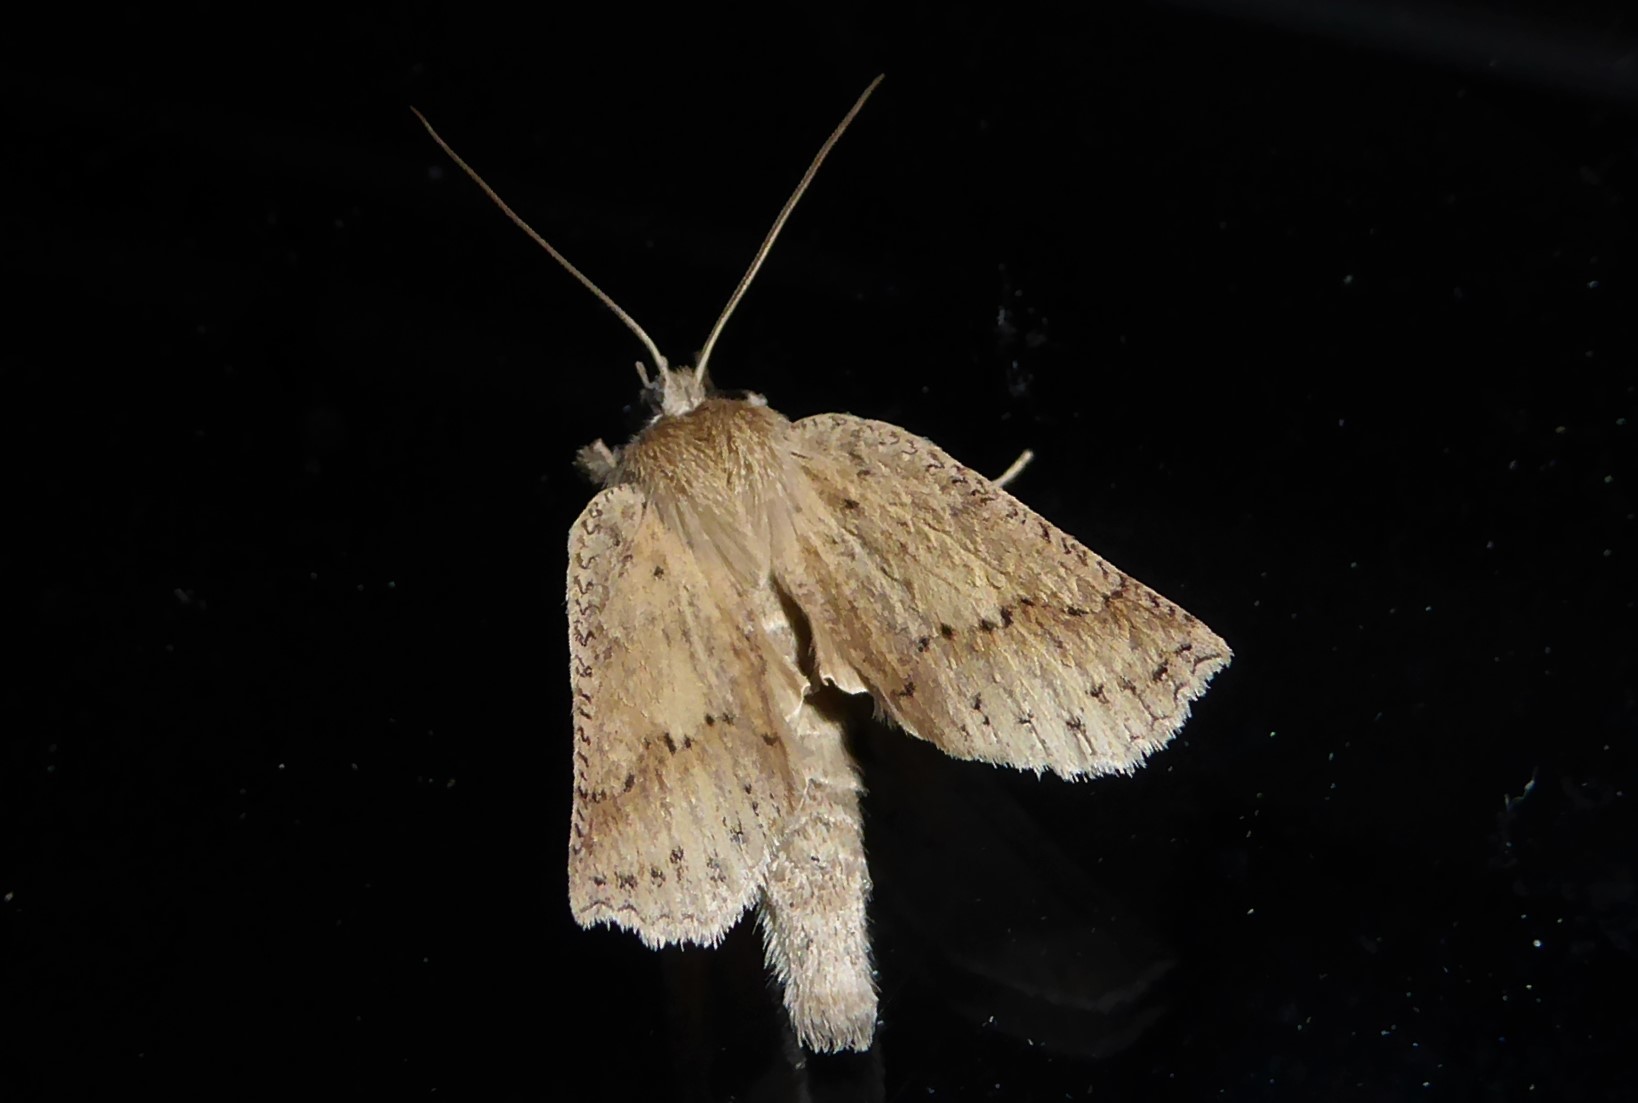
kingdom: Animalia
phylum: Arthropoda
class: Insecta
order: Lepidoptera
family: Geometridae
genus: Declana
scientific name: Declana leptomera
